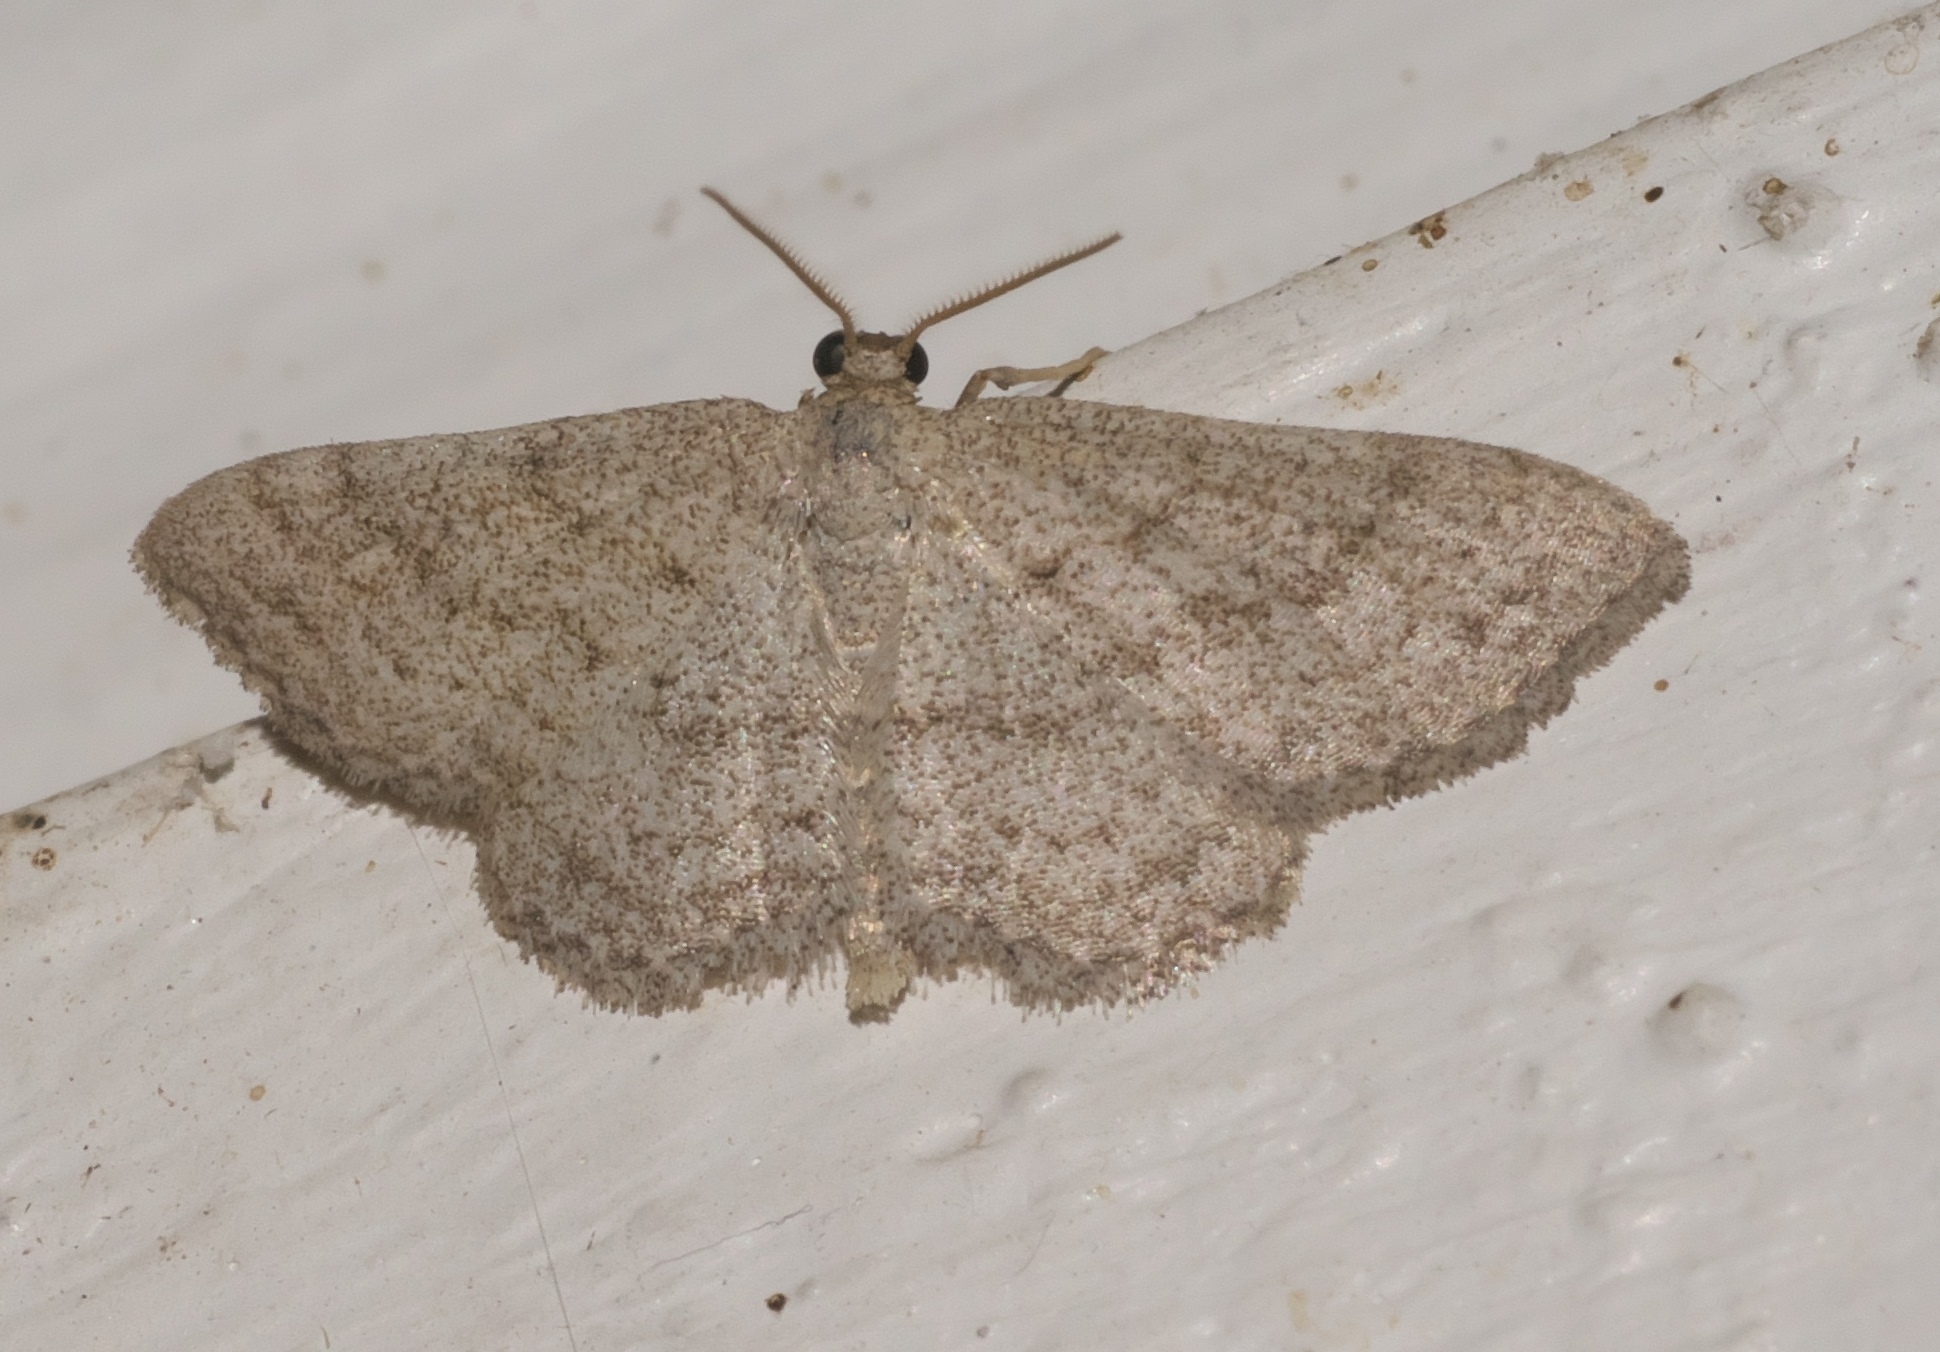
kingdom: Animalia
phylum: Arthropoda
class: Insecta
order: Lepidoptera
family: Geometridae
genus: Lobocleta
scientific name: Lobocleta ossularia
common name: Drab brown wave
